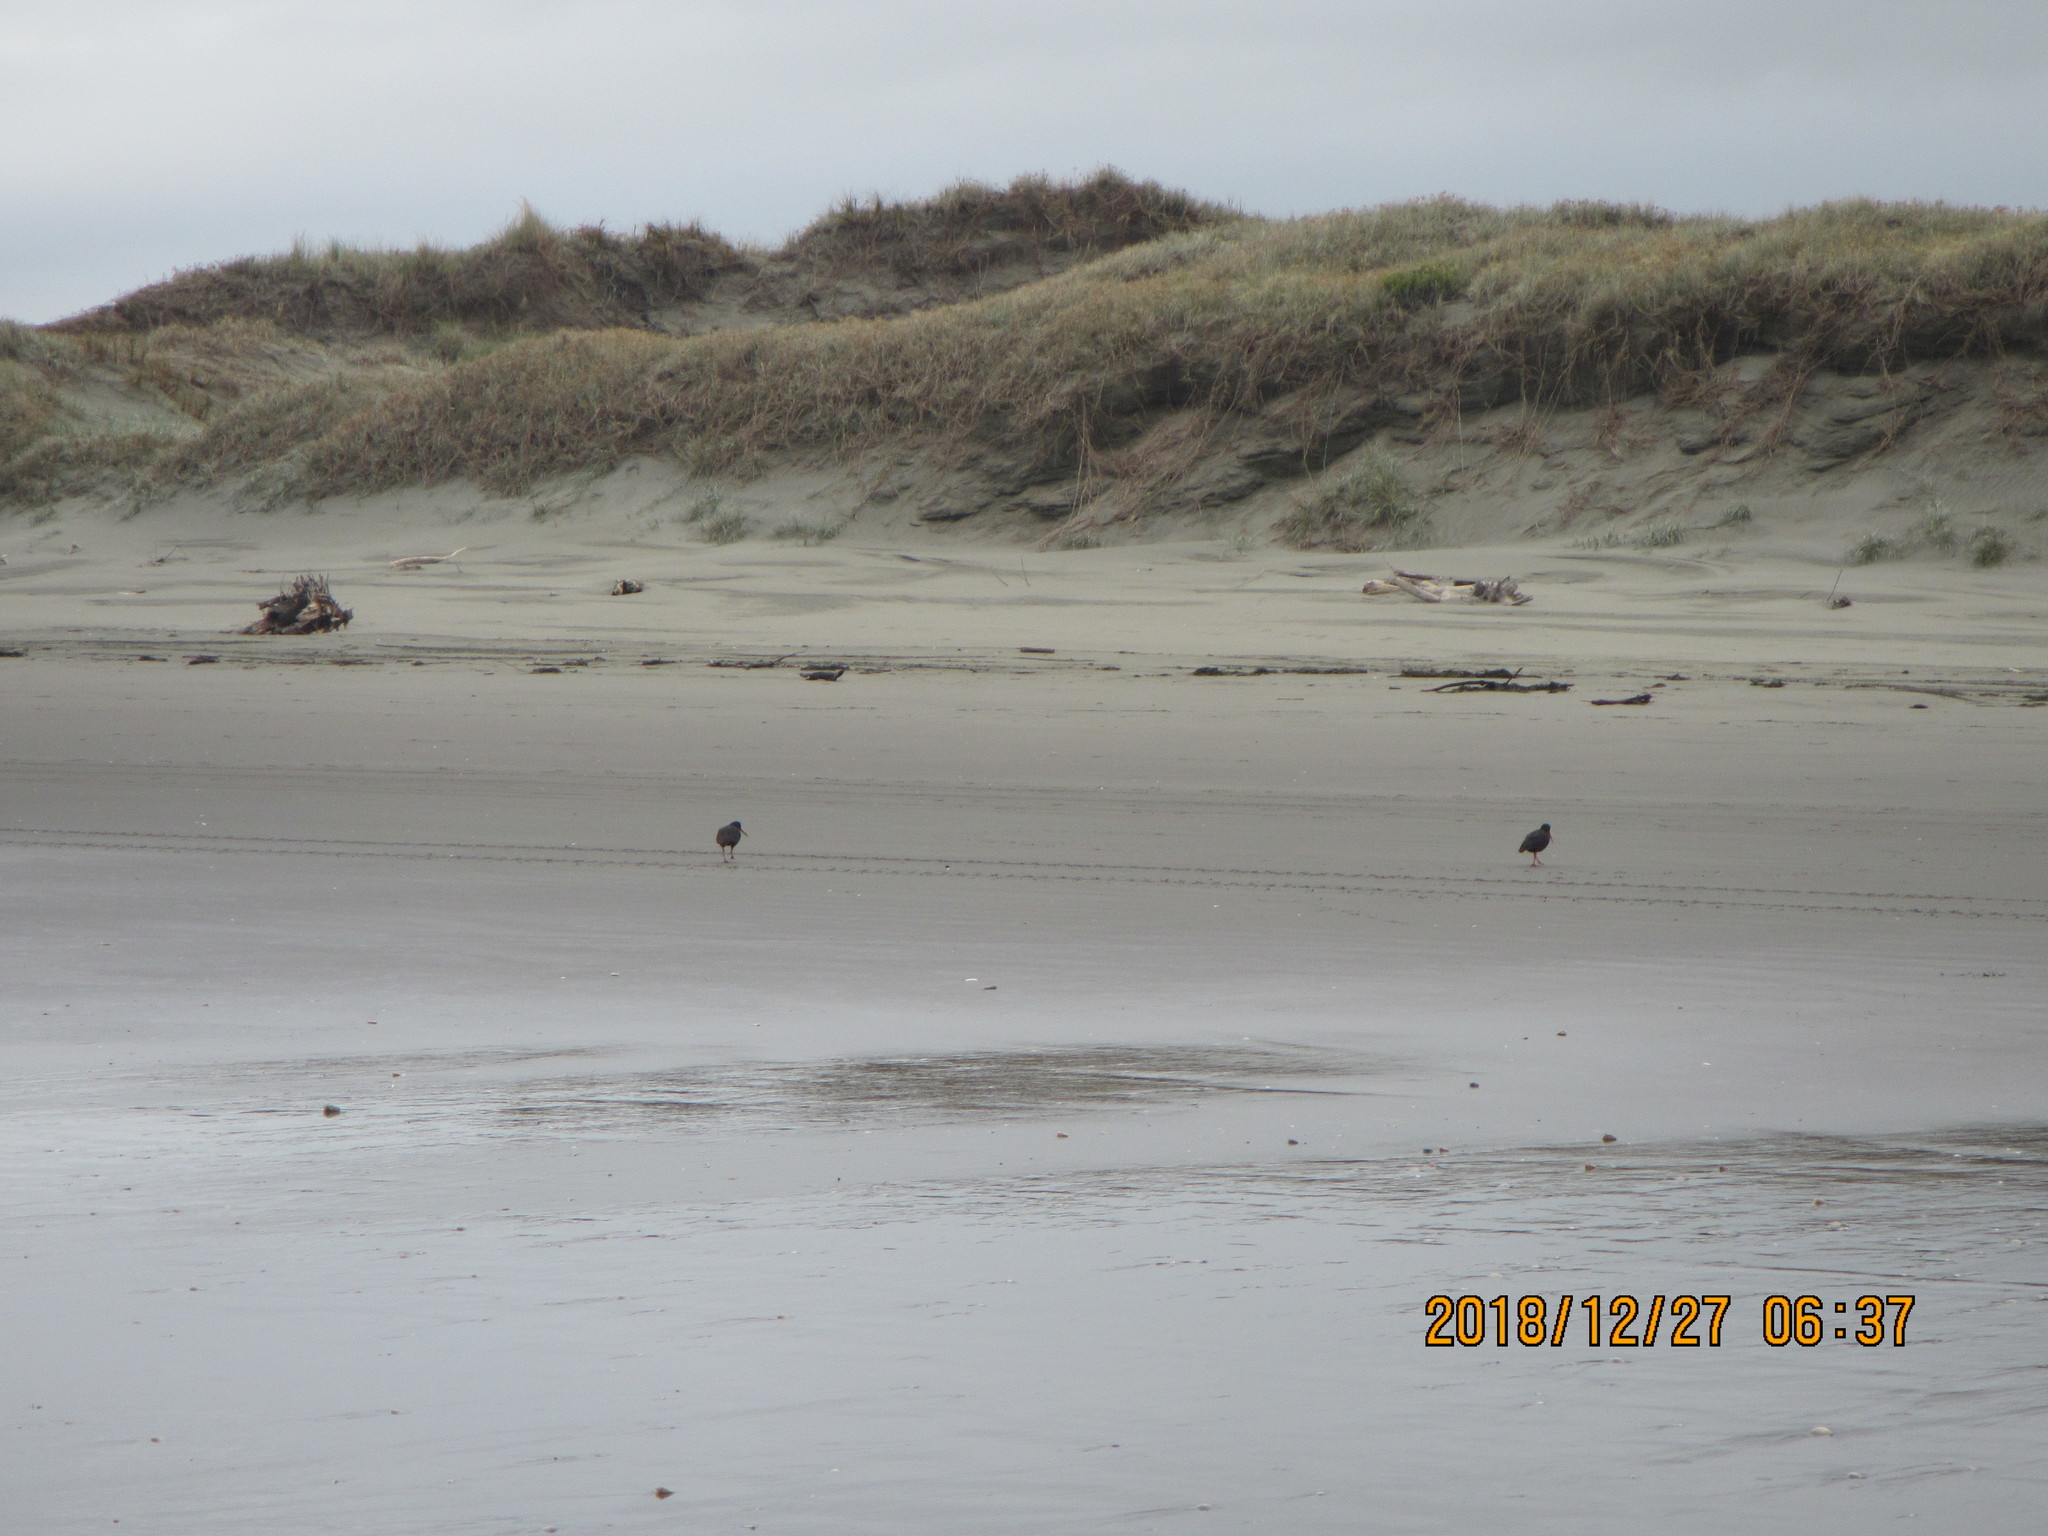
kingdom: Animalia
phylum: Chordata
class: Aves
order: Charadriiformes
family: Haematopodidae
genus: Haematopus
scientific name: Haematopus unicolor
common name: Variable oystercatcher
